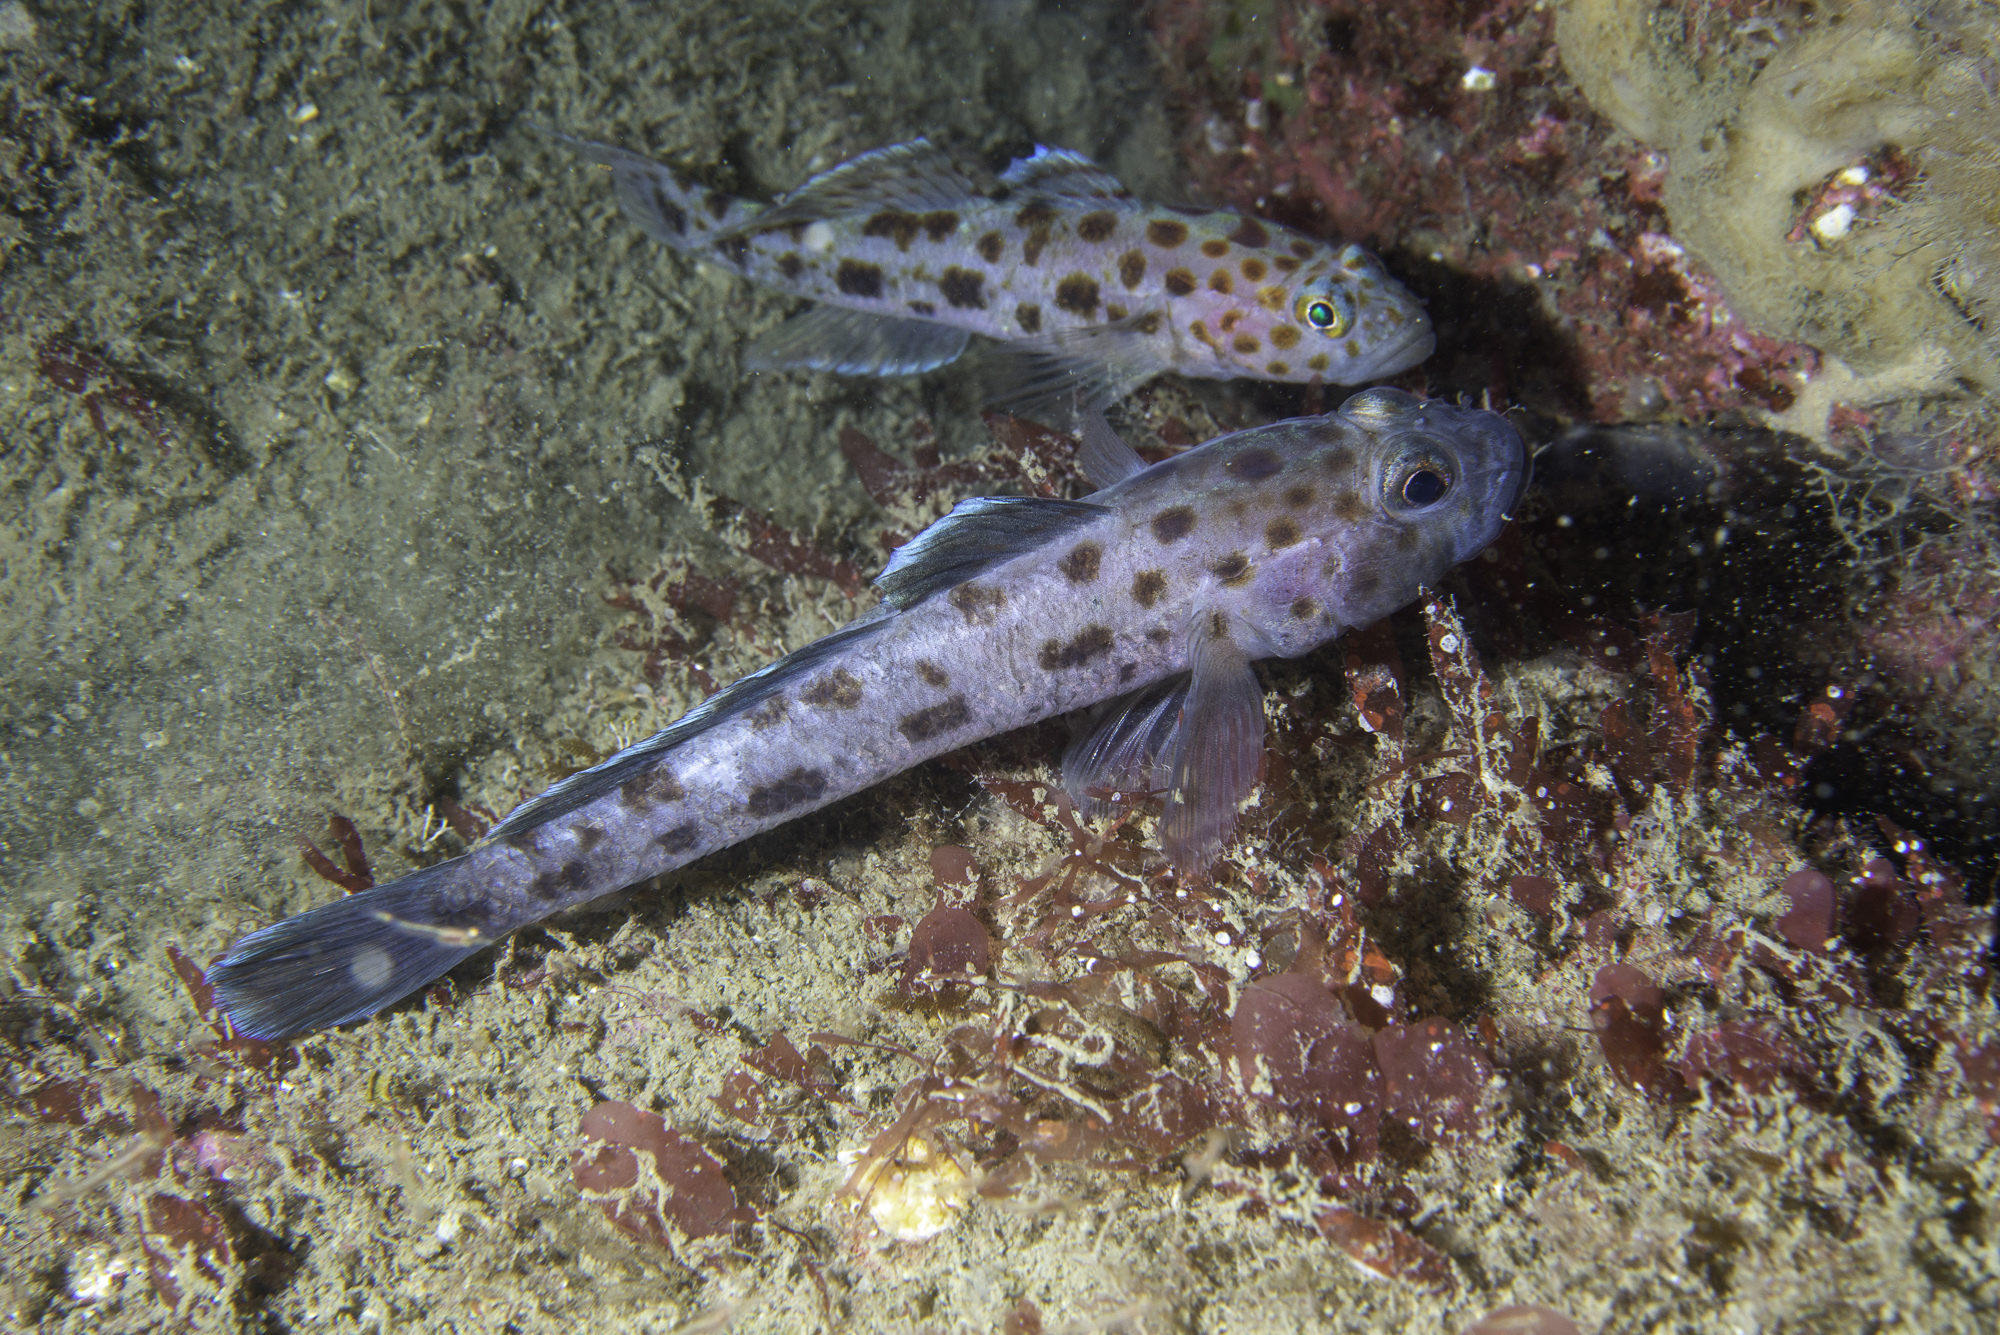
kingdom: Animalia
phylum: Chordata
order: Perciformes
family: Gobiidae
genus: Thorogobius
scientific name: Thorogobius ephippiatus
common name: Leopard-spotted goby
